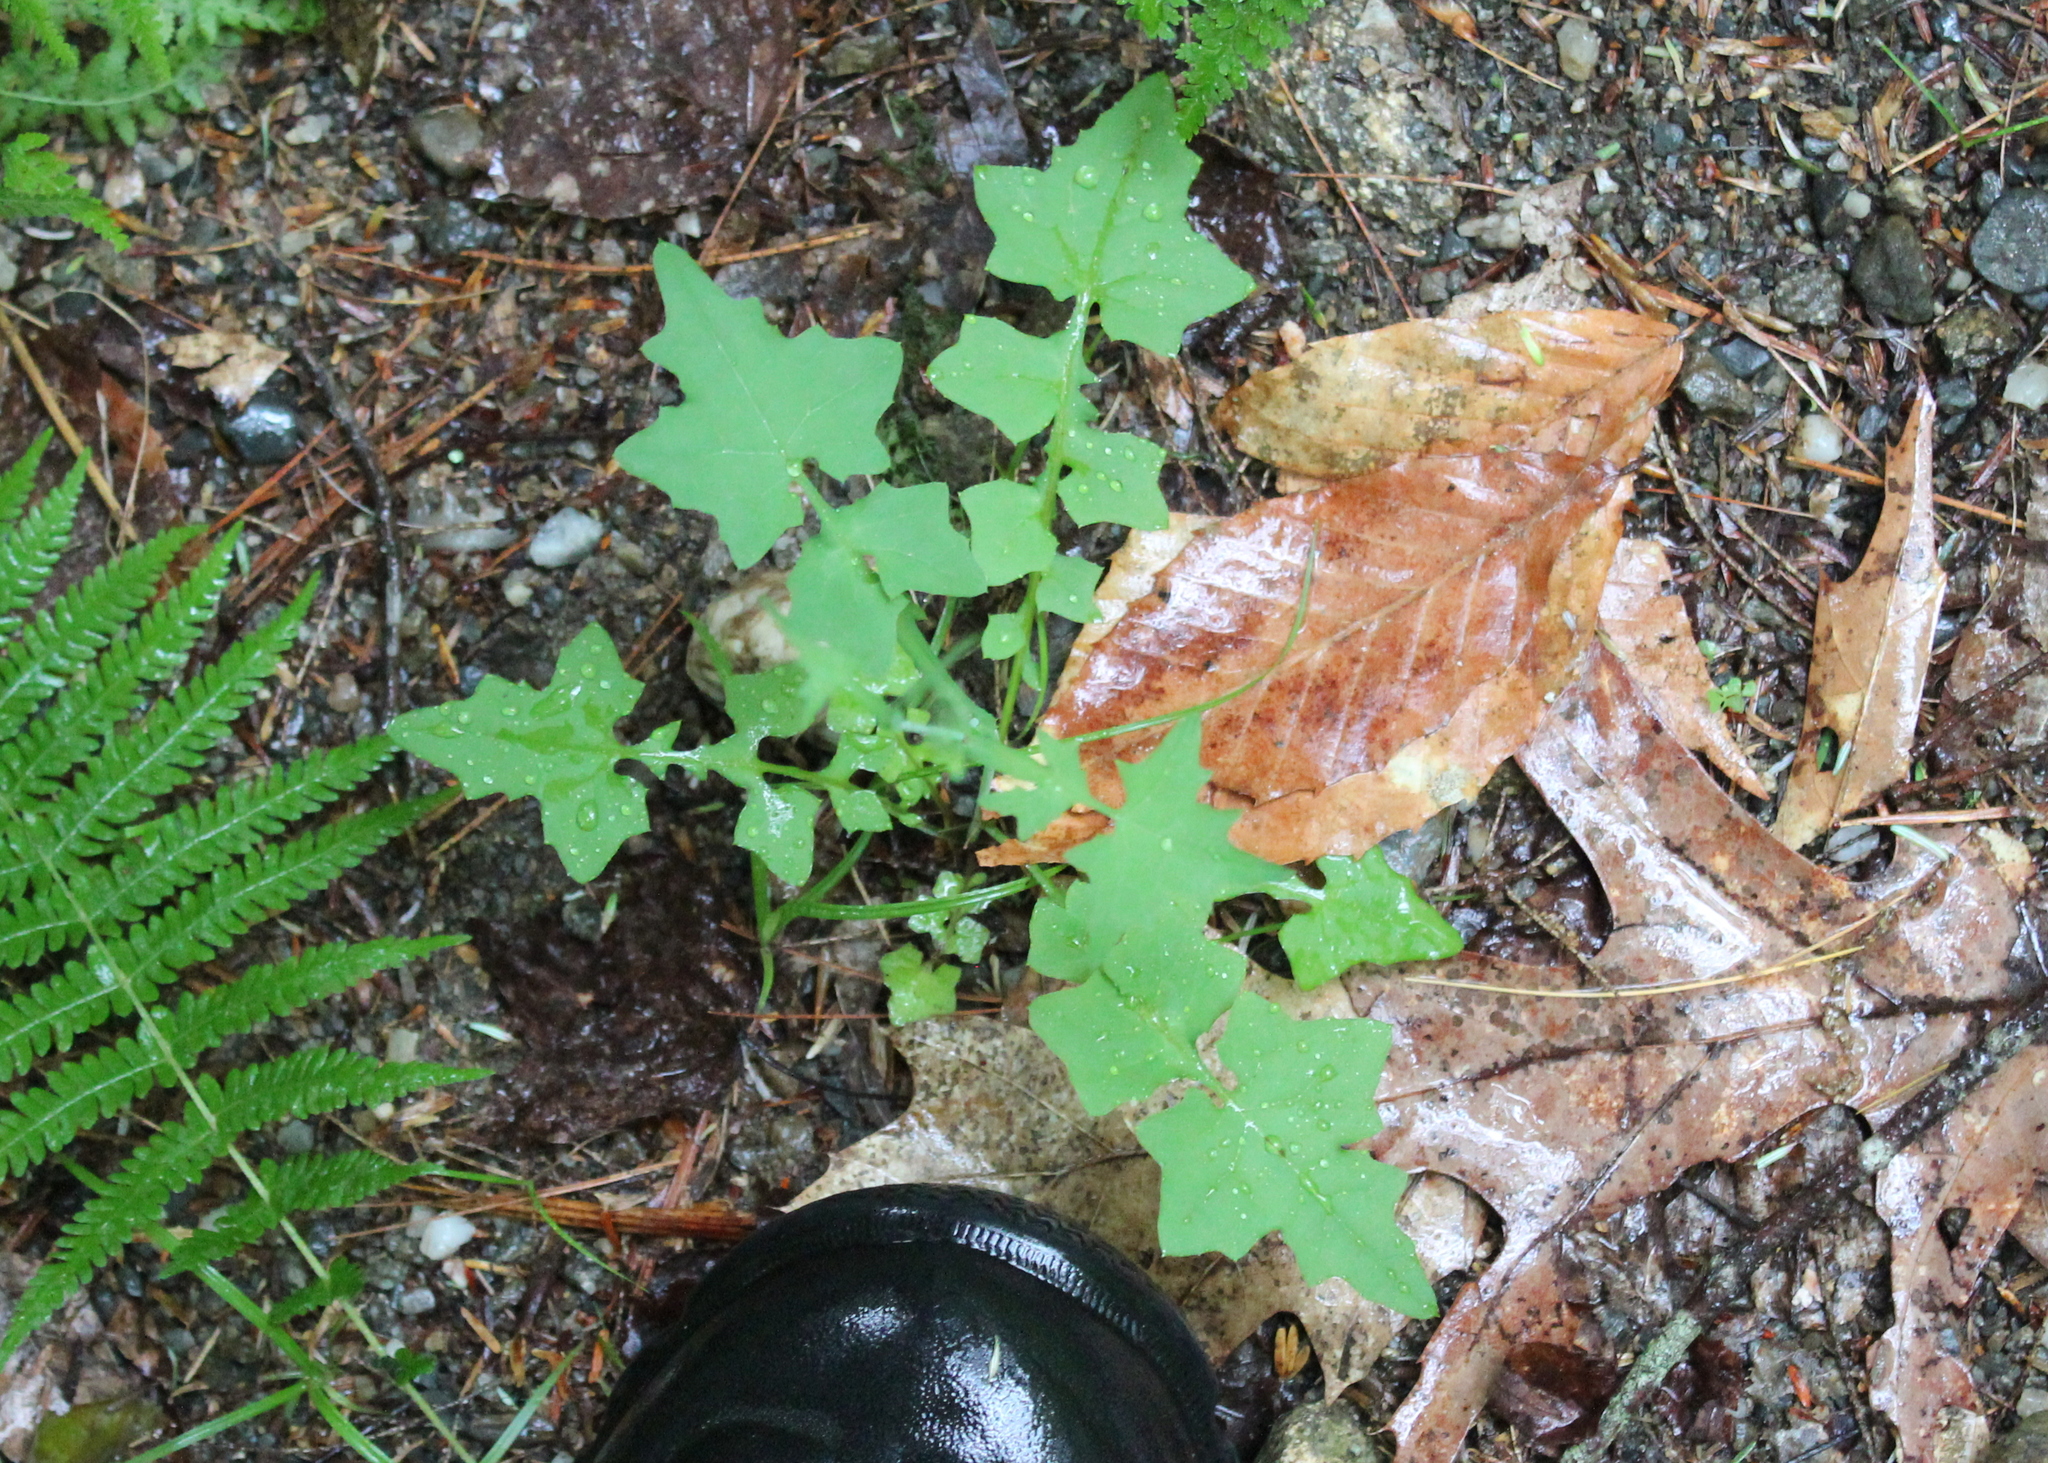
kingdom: Plantae
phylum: Tracheophyta
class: Magnoliopsida
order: Asterales
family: Asteraceae
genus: Mycelis
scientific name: Mycelis muralis
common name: Wall lettuce
